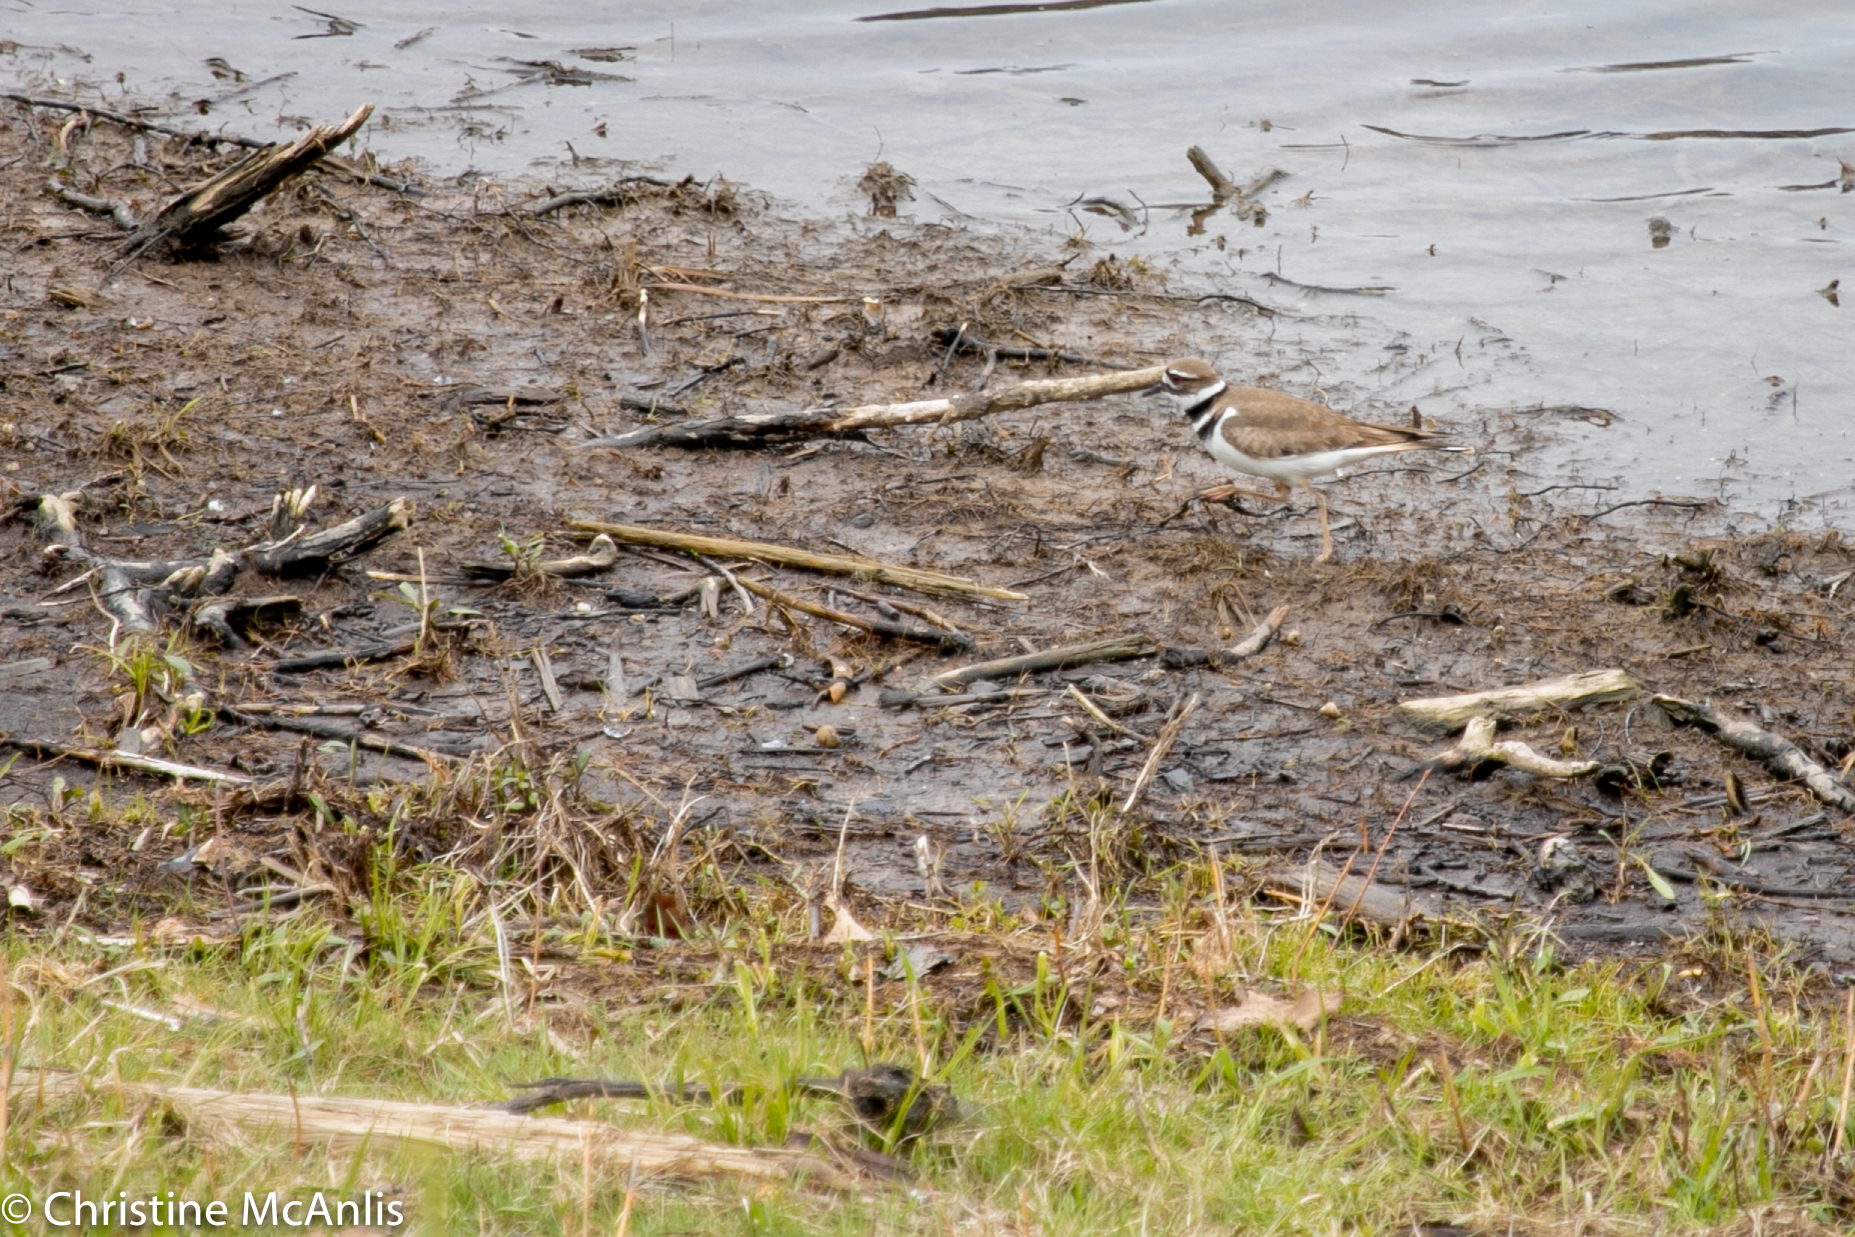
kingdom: Animalia
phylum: Chordata
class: Aves
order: Charadriiformes
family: Charadriidae
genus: Charadrius
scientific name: Charadrius vociferus
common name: Killdeer
